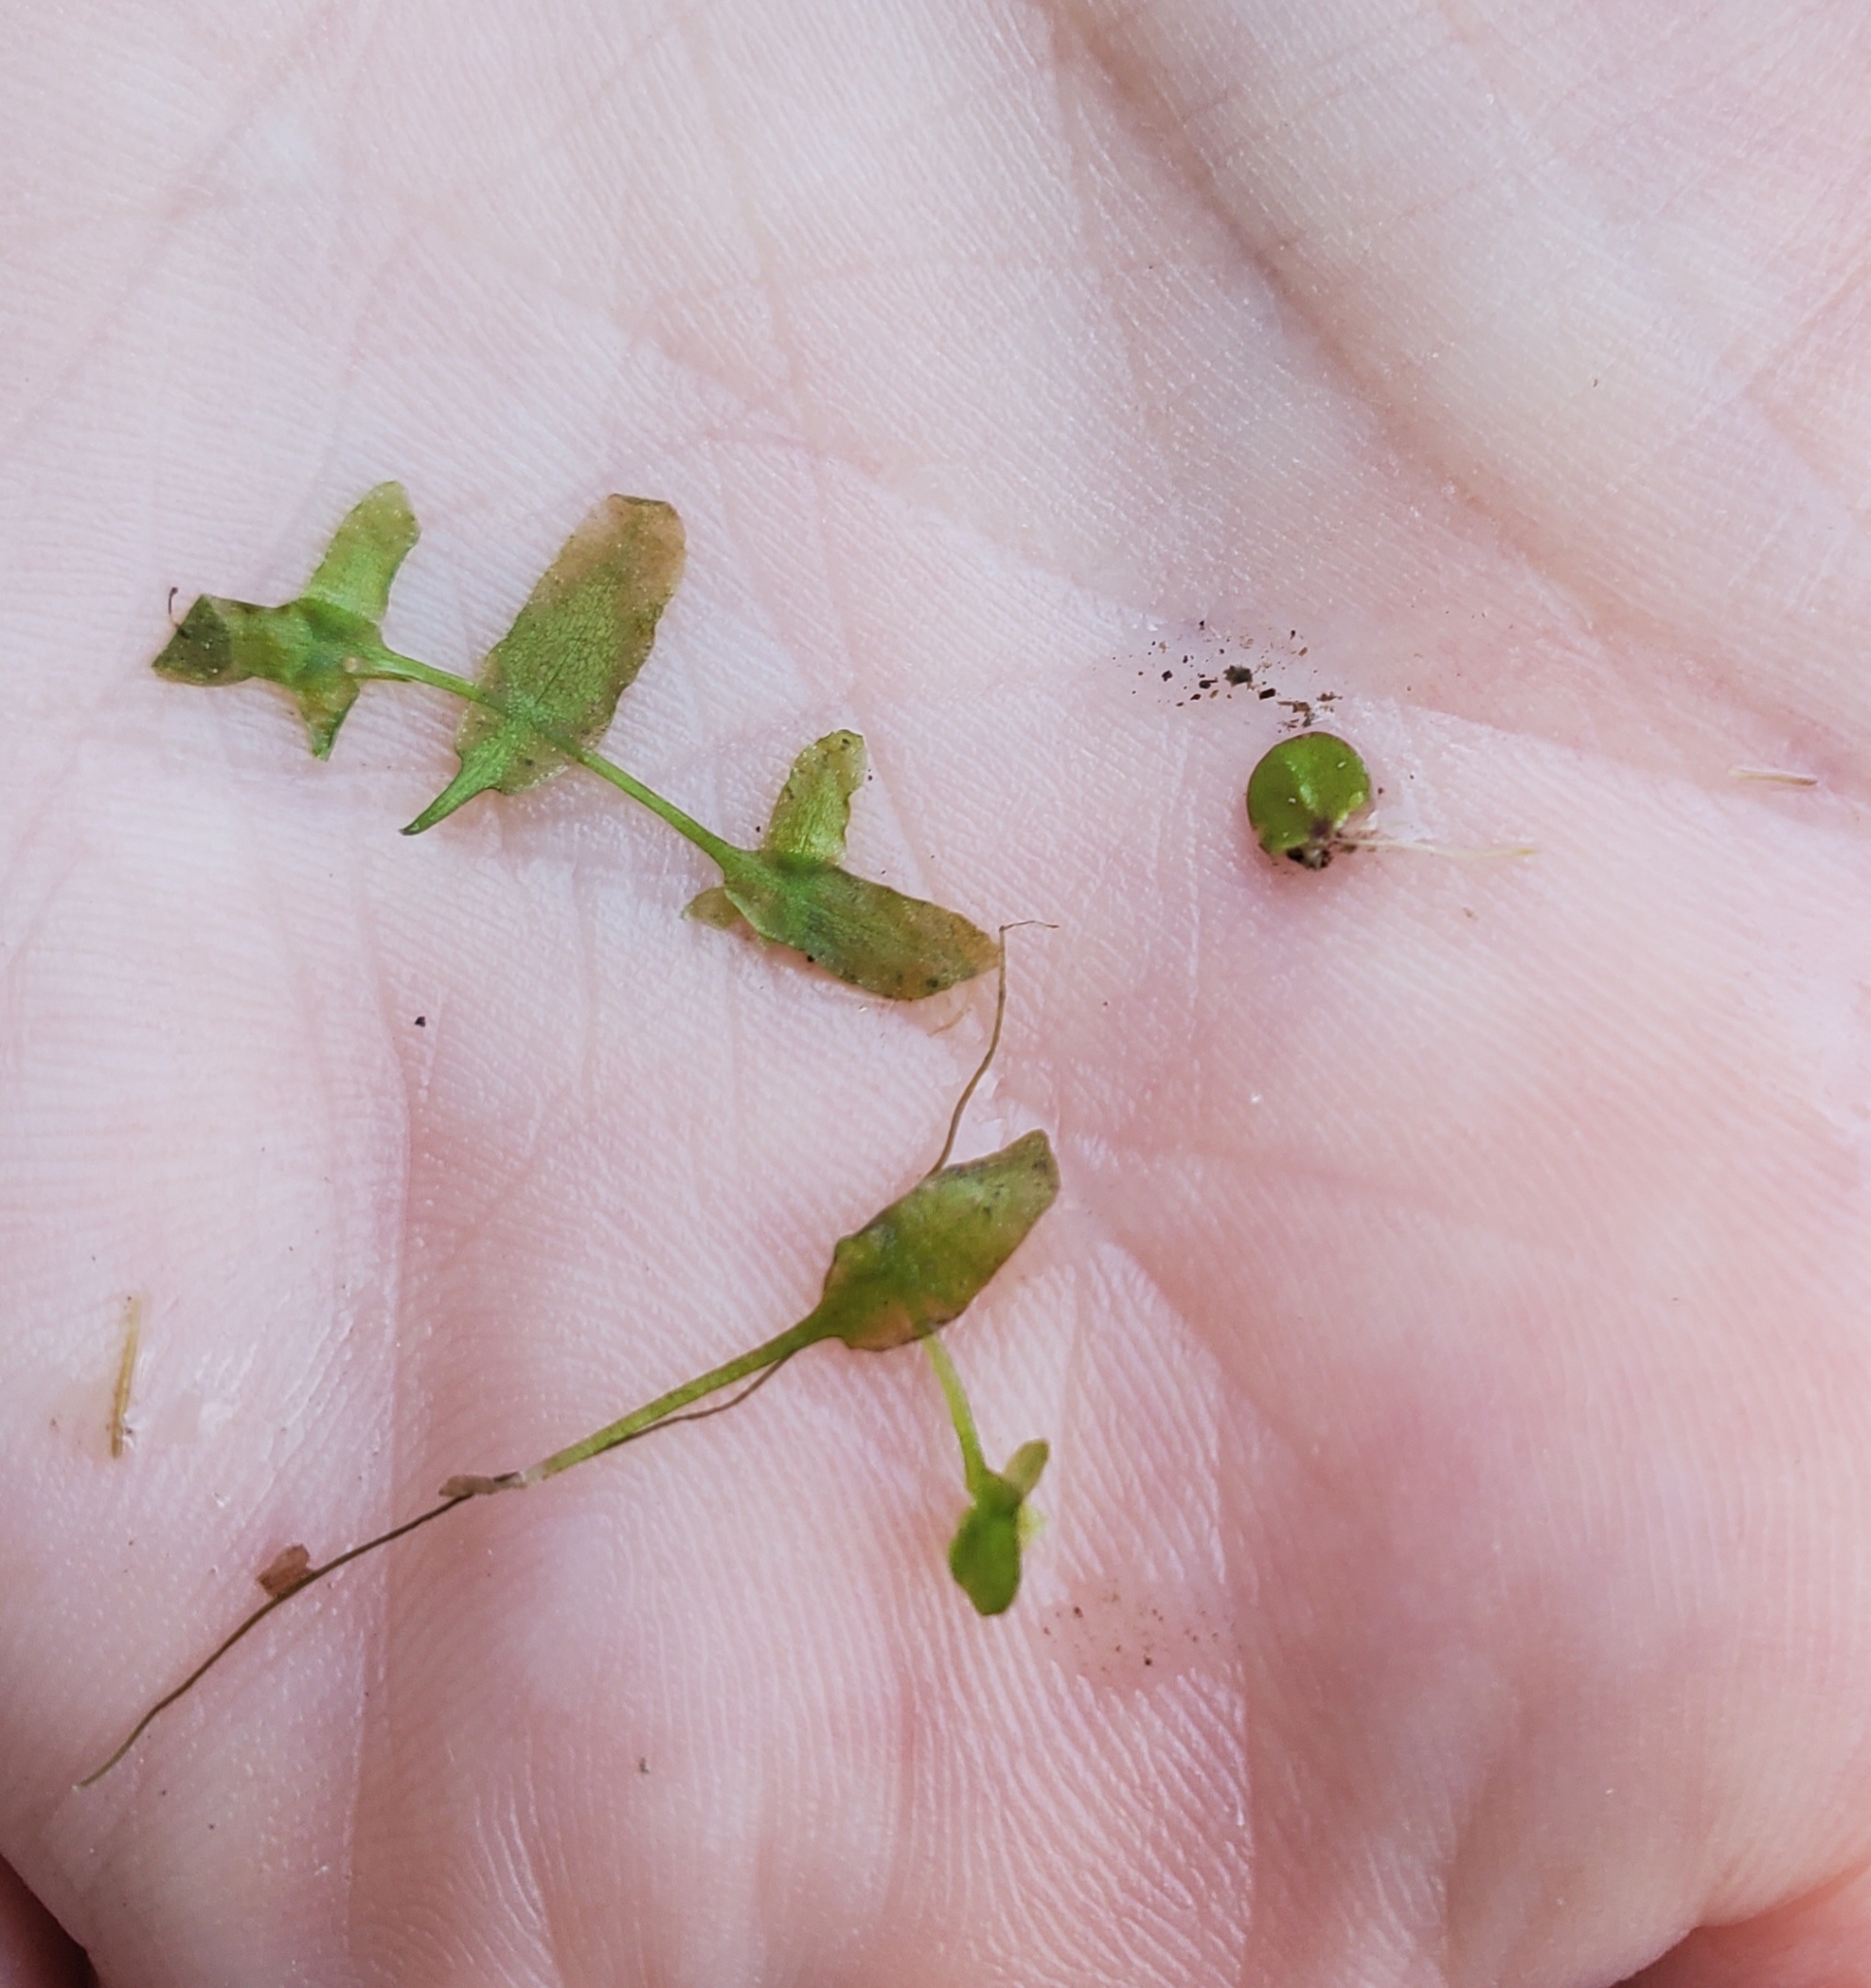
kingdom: Plantae
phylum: Tracheophyta
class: Liliopsida
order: Alismatales
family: Araceae
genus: Lemna
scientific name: Lemna trisulca
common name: Ivy-leaved duckweed
